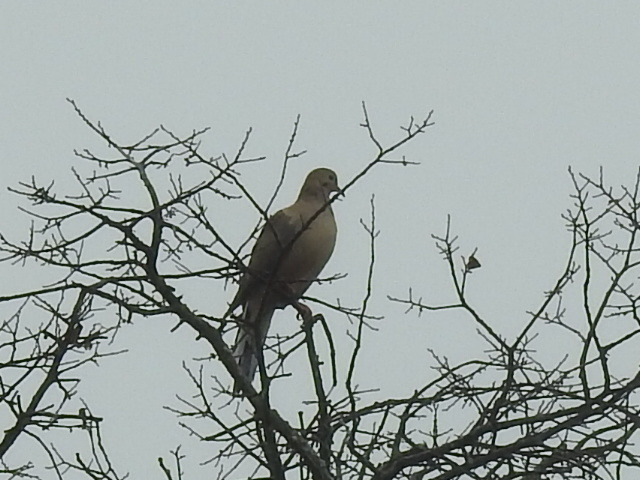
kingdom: Animalia
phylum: Chordata
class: Aves
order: Columbiformes
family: Columbidae
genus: Zenaida
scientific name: Zenaida macroura
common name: Mourning dove
